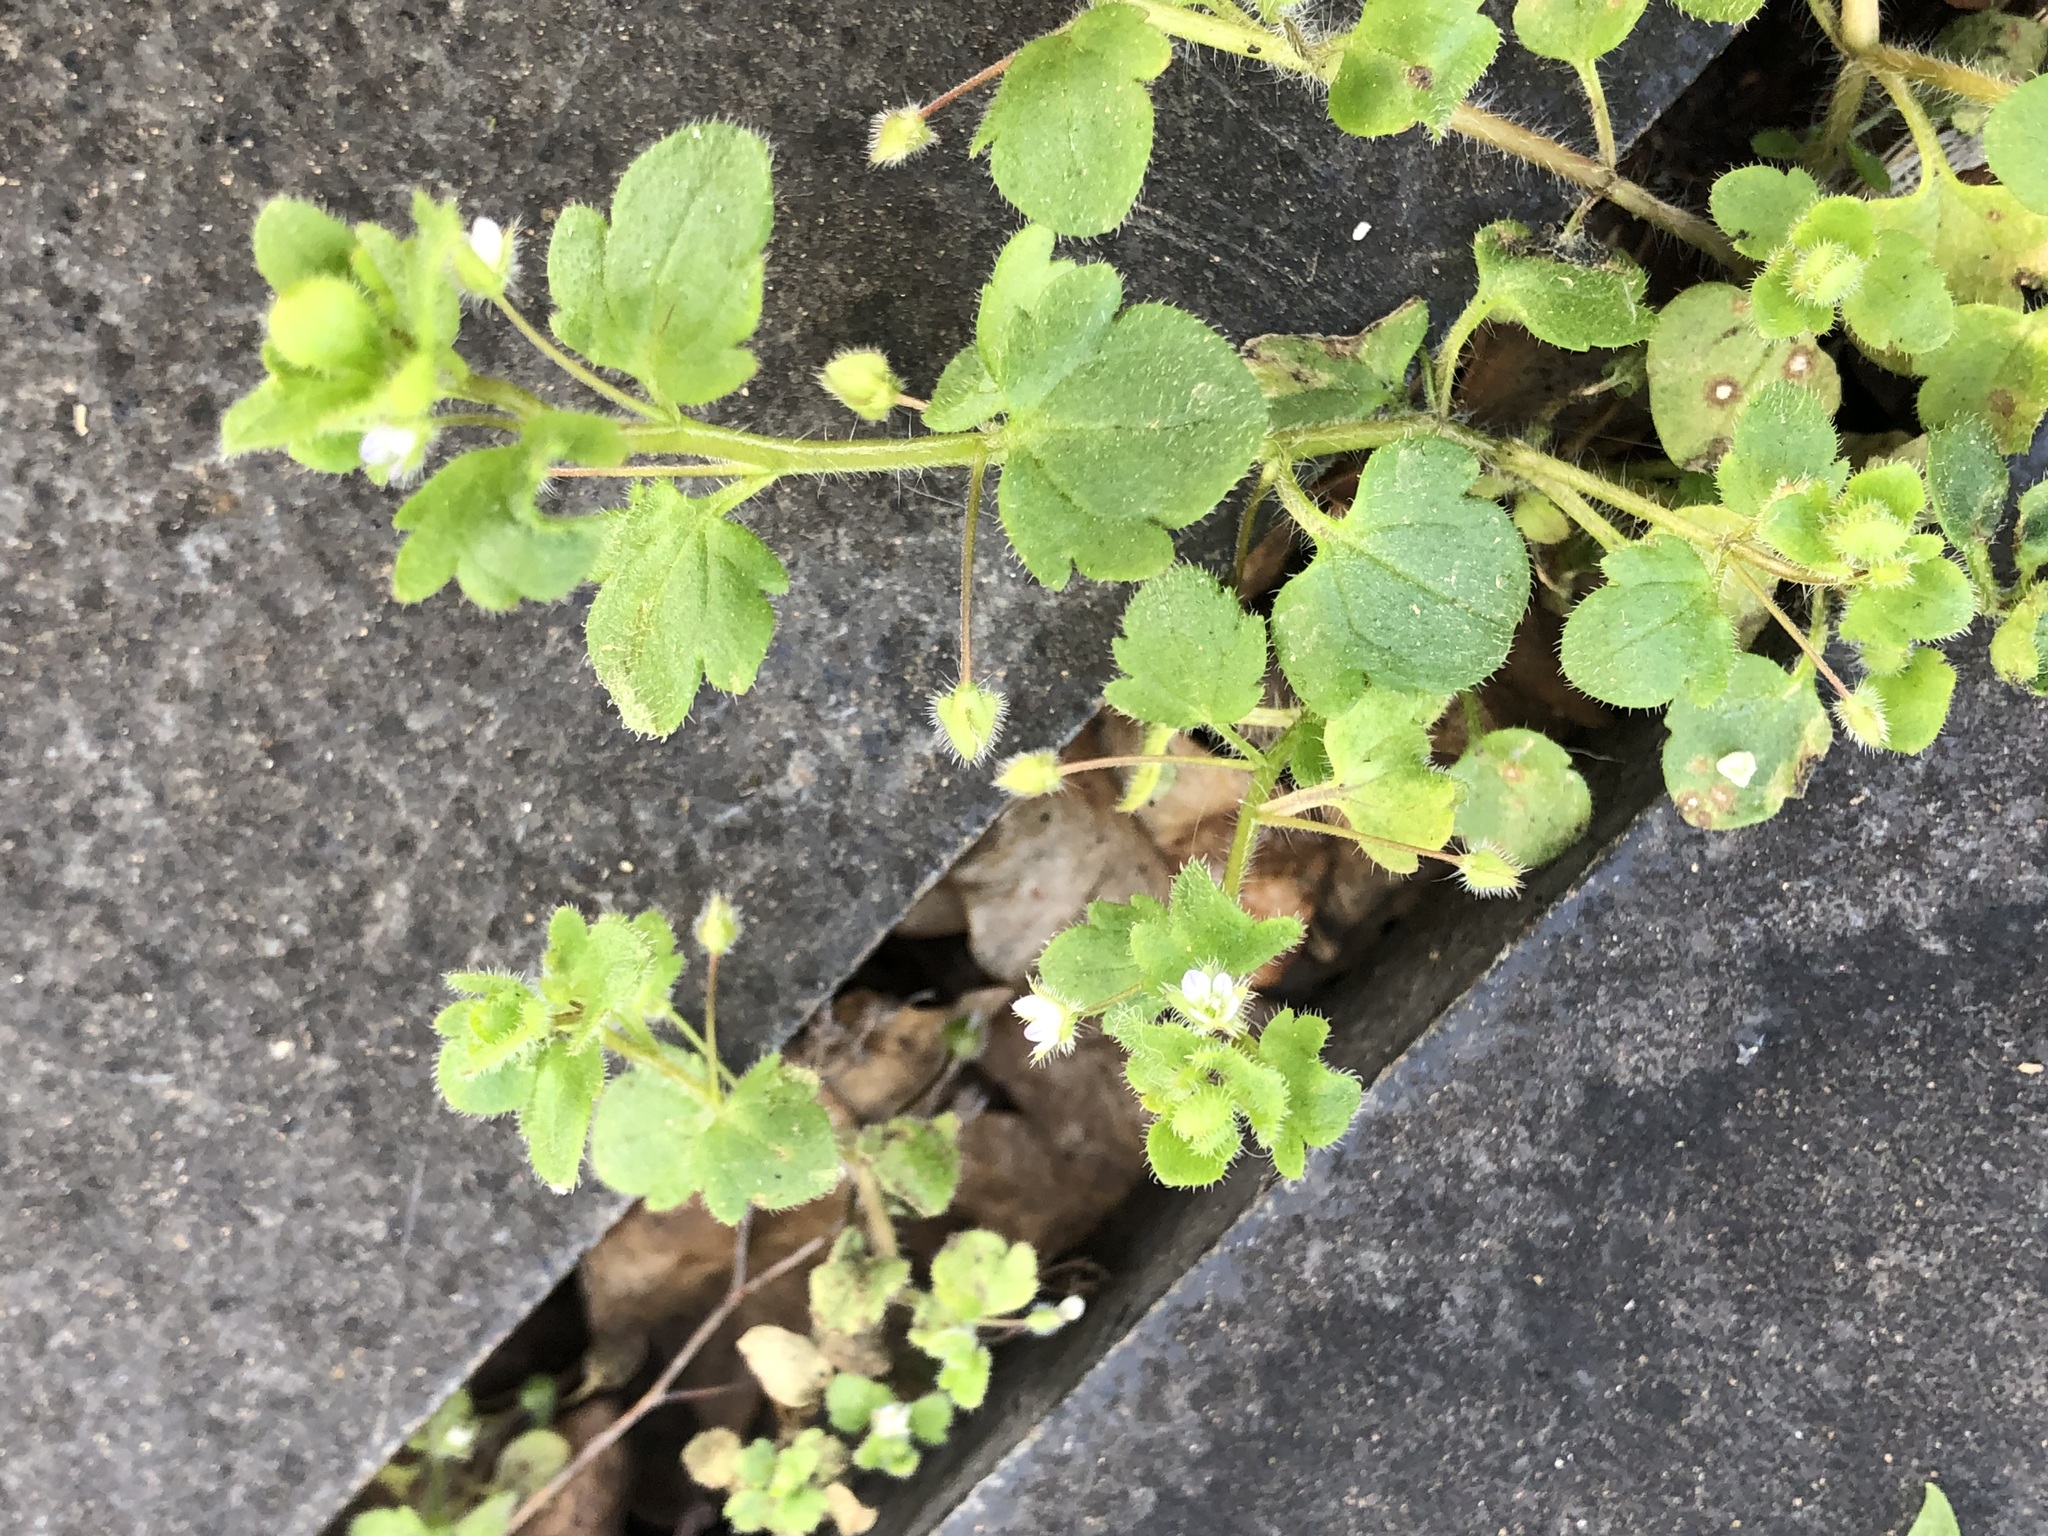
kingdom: Plantae
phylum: Tracheophyta
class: Magnoliopsida
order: Lamiales
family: Plantaginaceae
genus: Veronica
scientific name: Veronica sublobata
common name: False ivy-leaved speedwell
